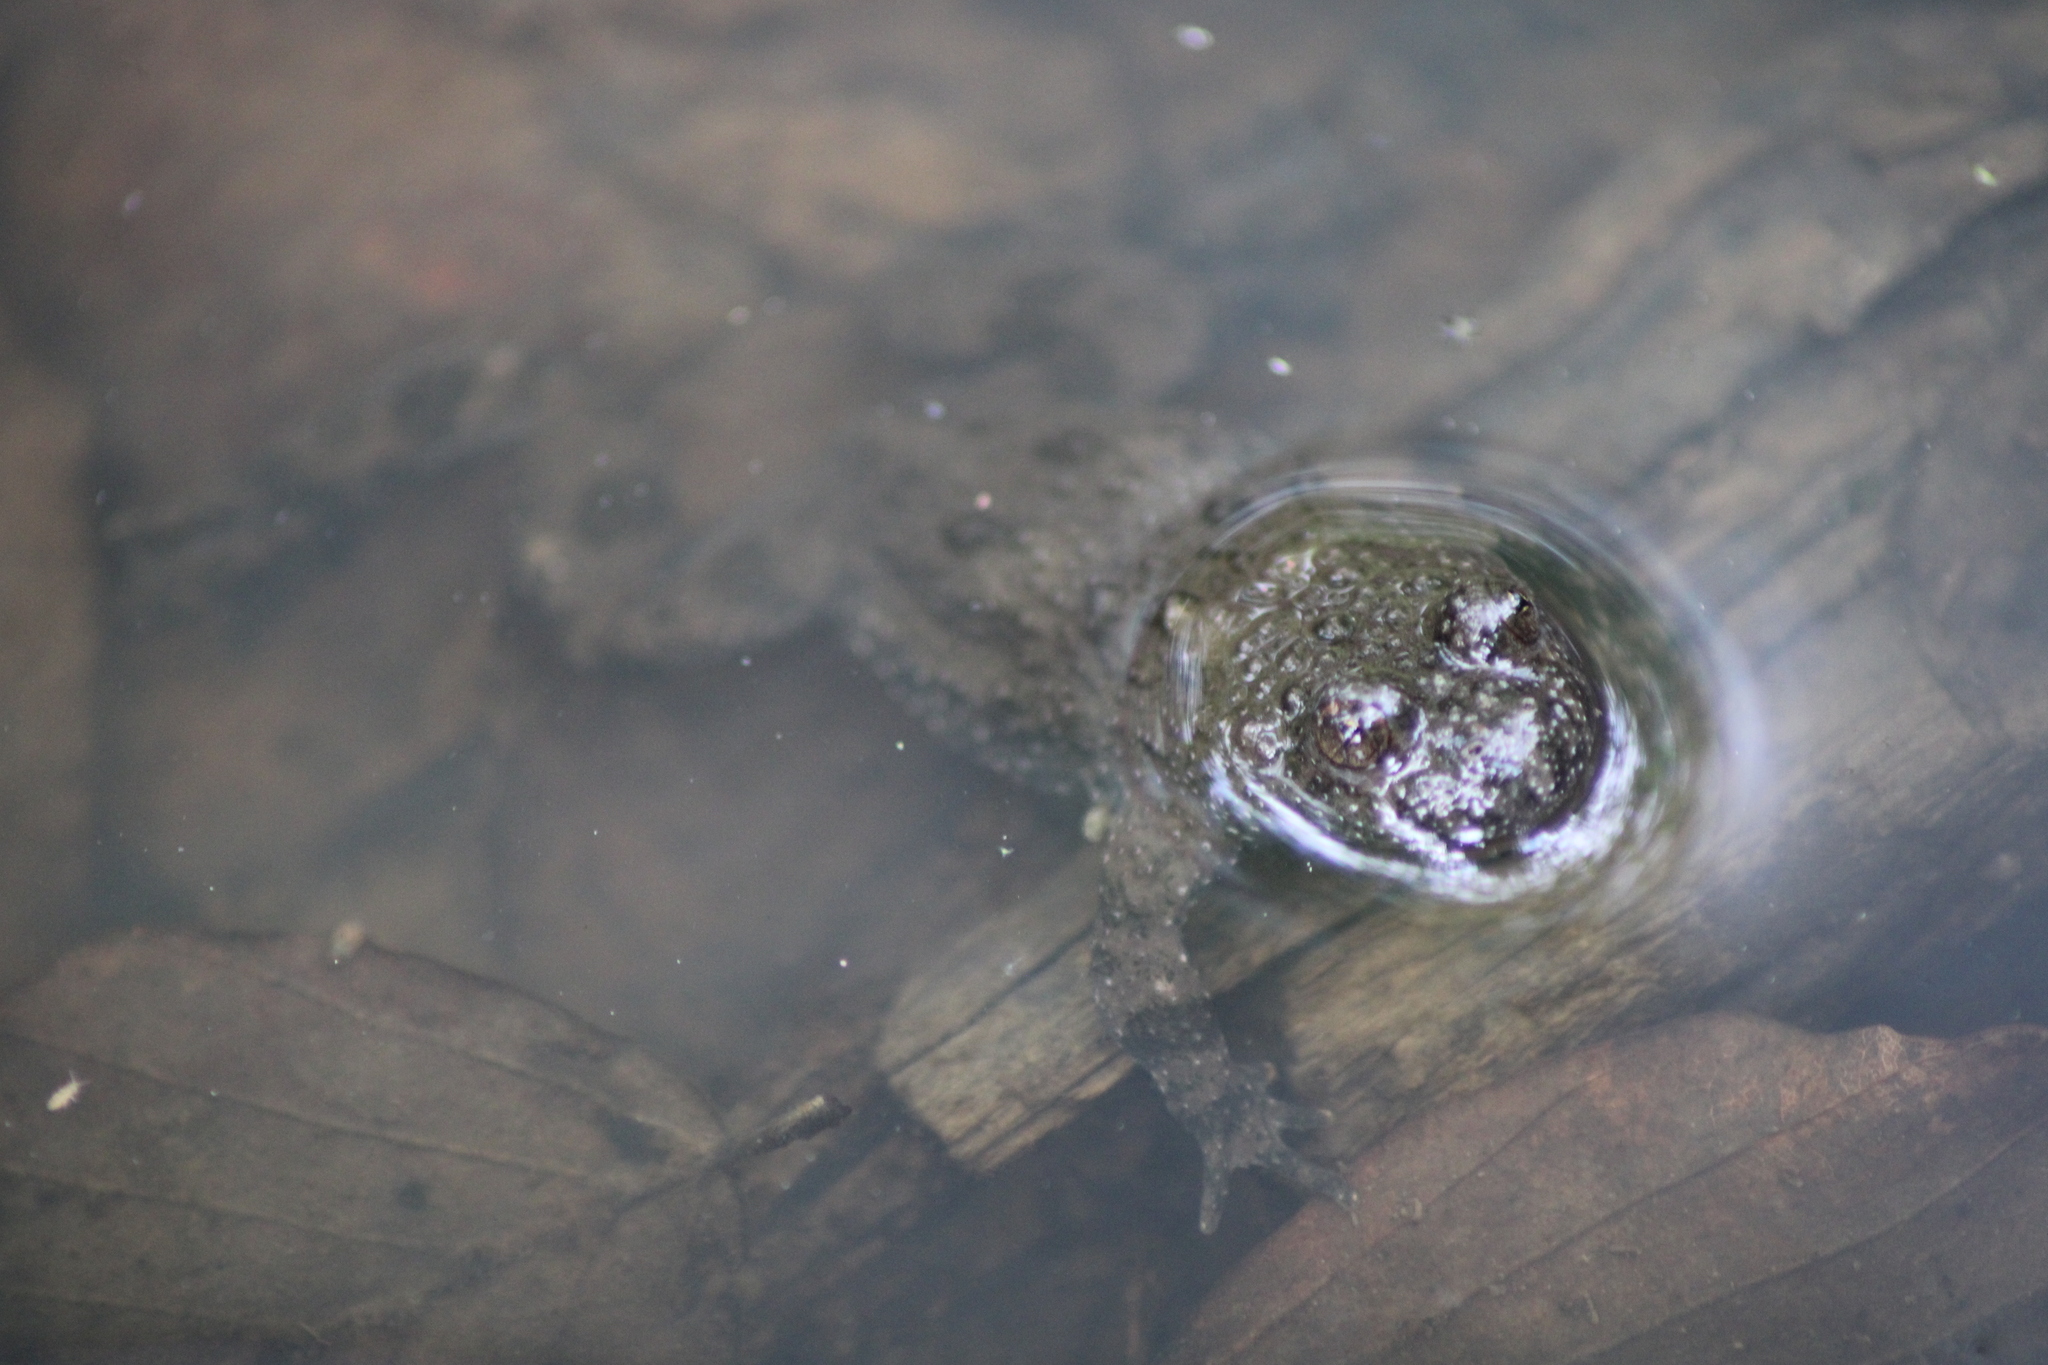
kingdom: Animalia
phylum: Chordata
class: Amphibia
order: Anura
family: Bombinatoridae
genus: Bombina
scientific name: Bombina variegata
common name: Yellow-bellied toad
